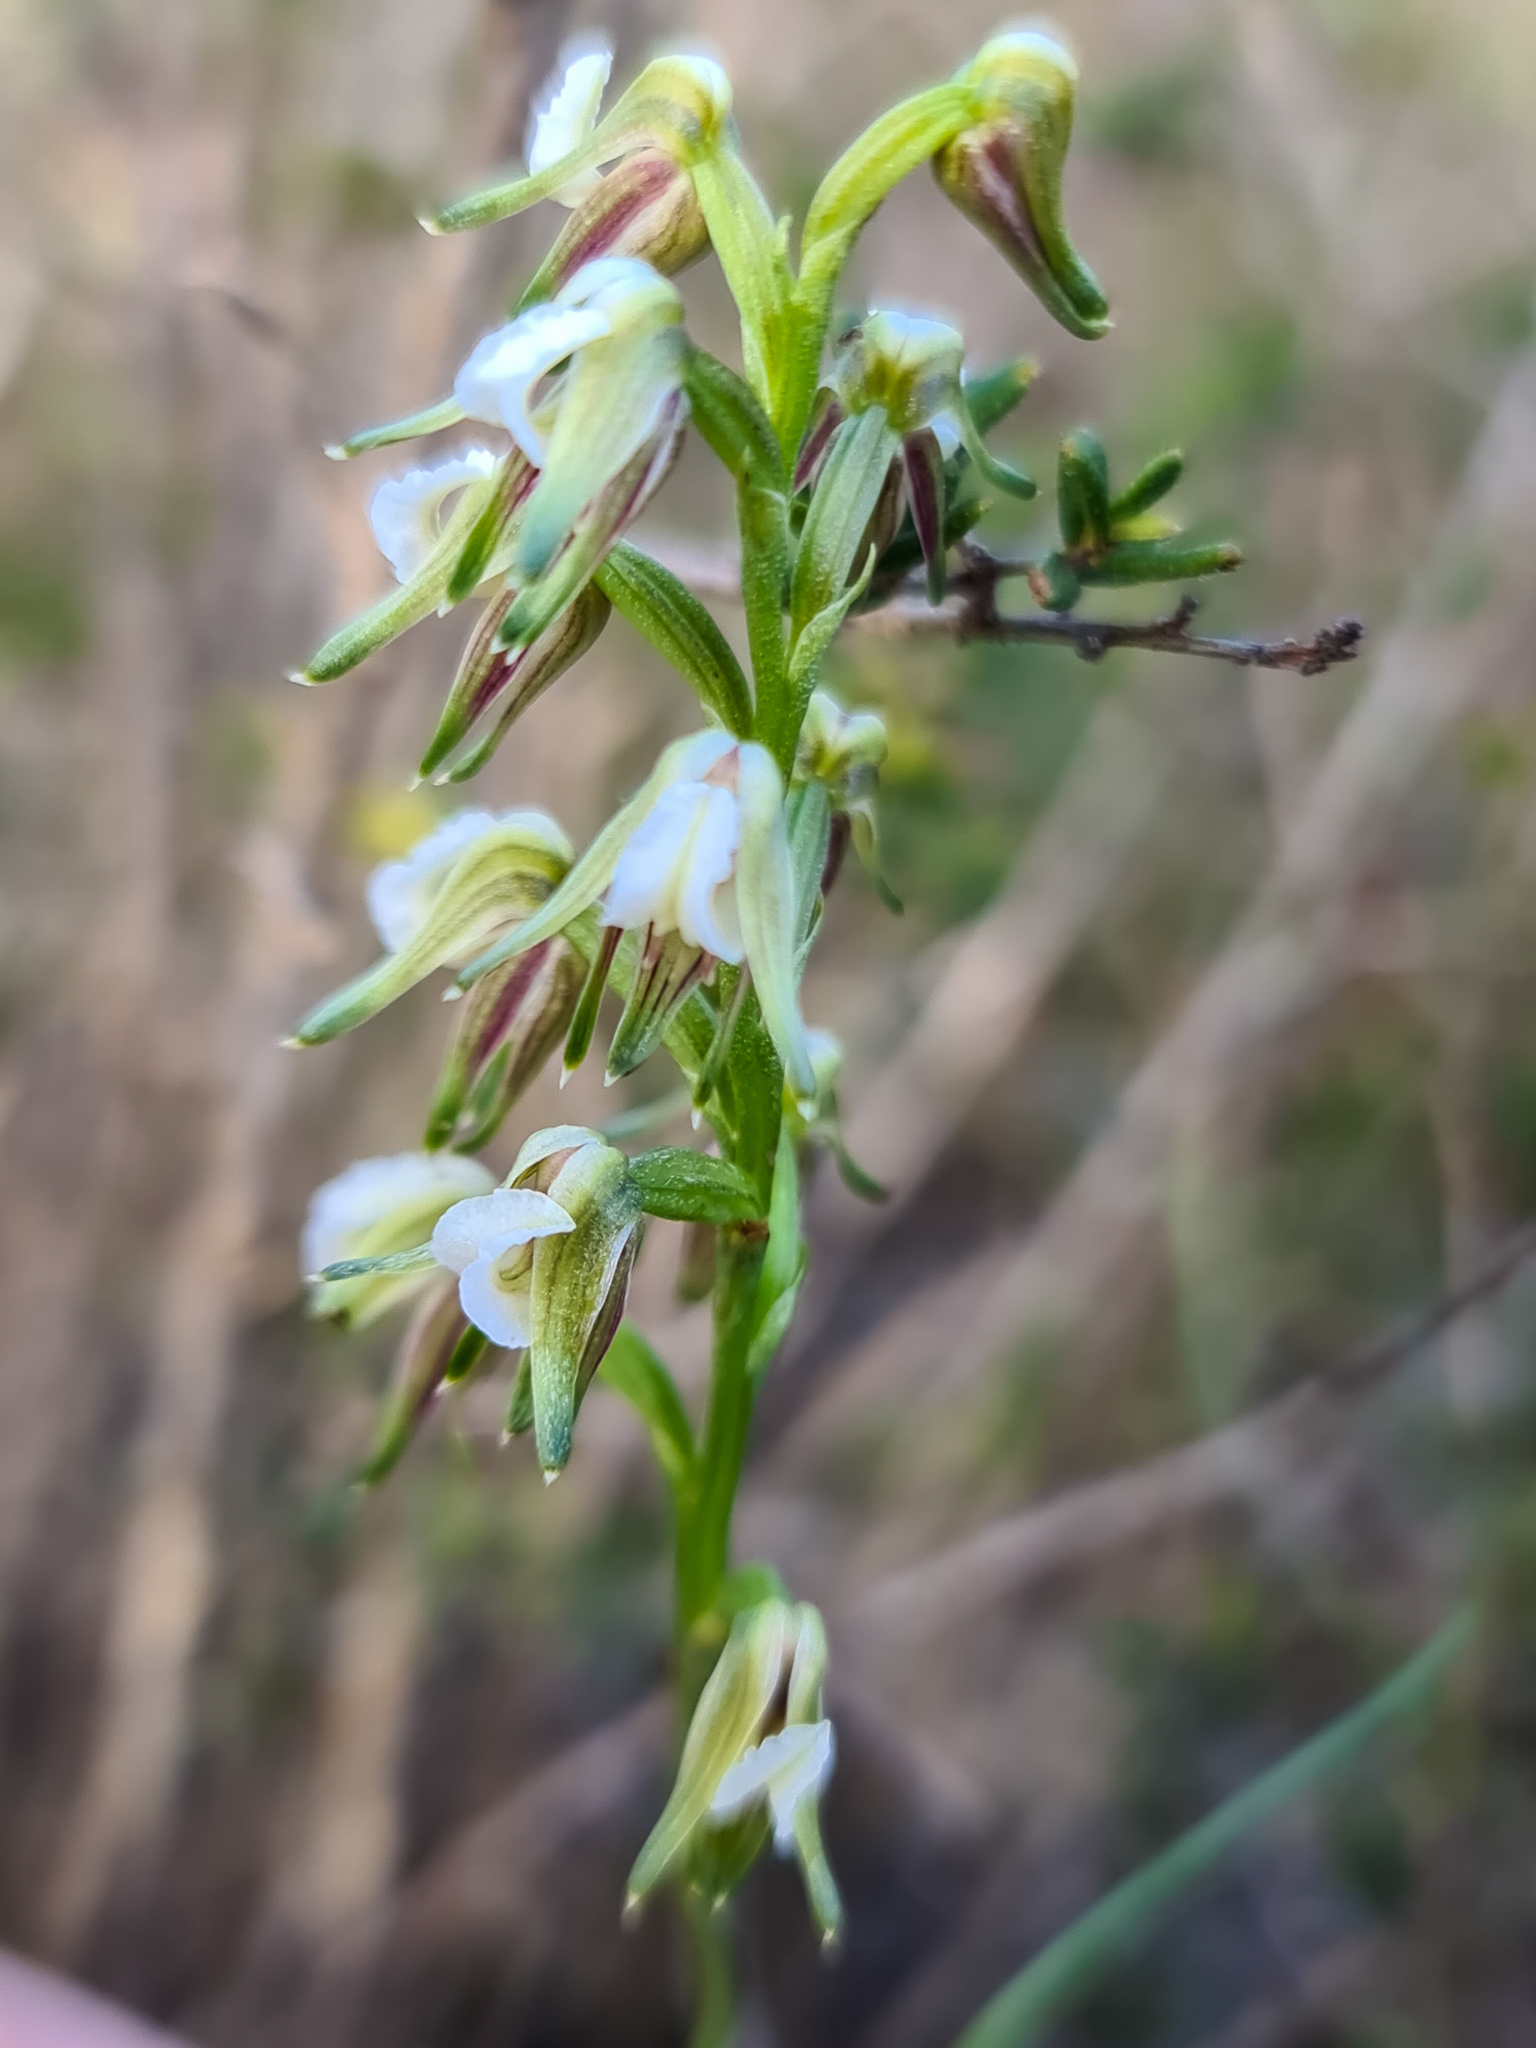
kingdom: Plantae
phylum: Tracheophyta
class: Liliopsida
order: Asparagales
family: Orchidaceae
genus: Prasophyllum
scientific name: Prasophyllum parvifolium
